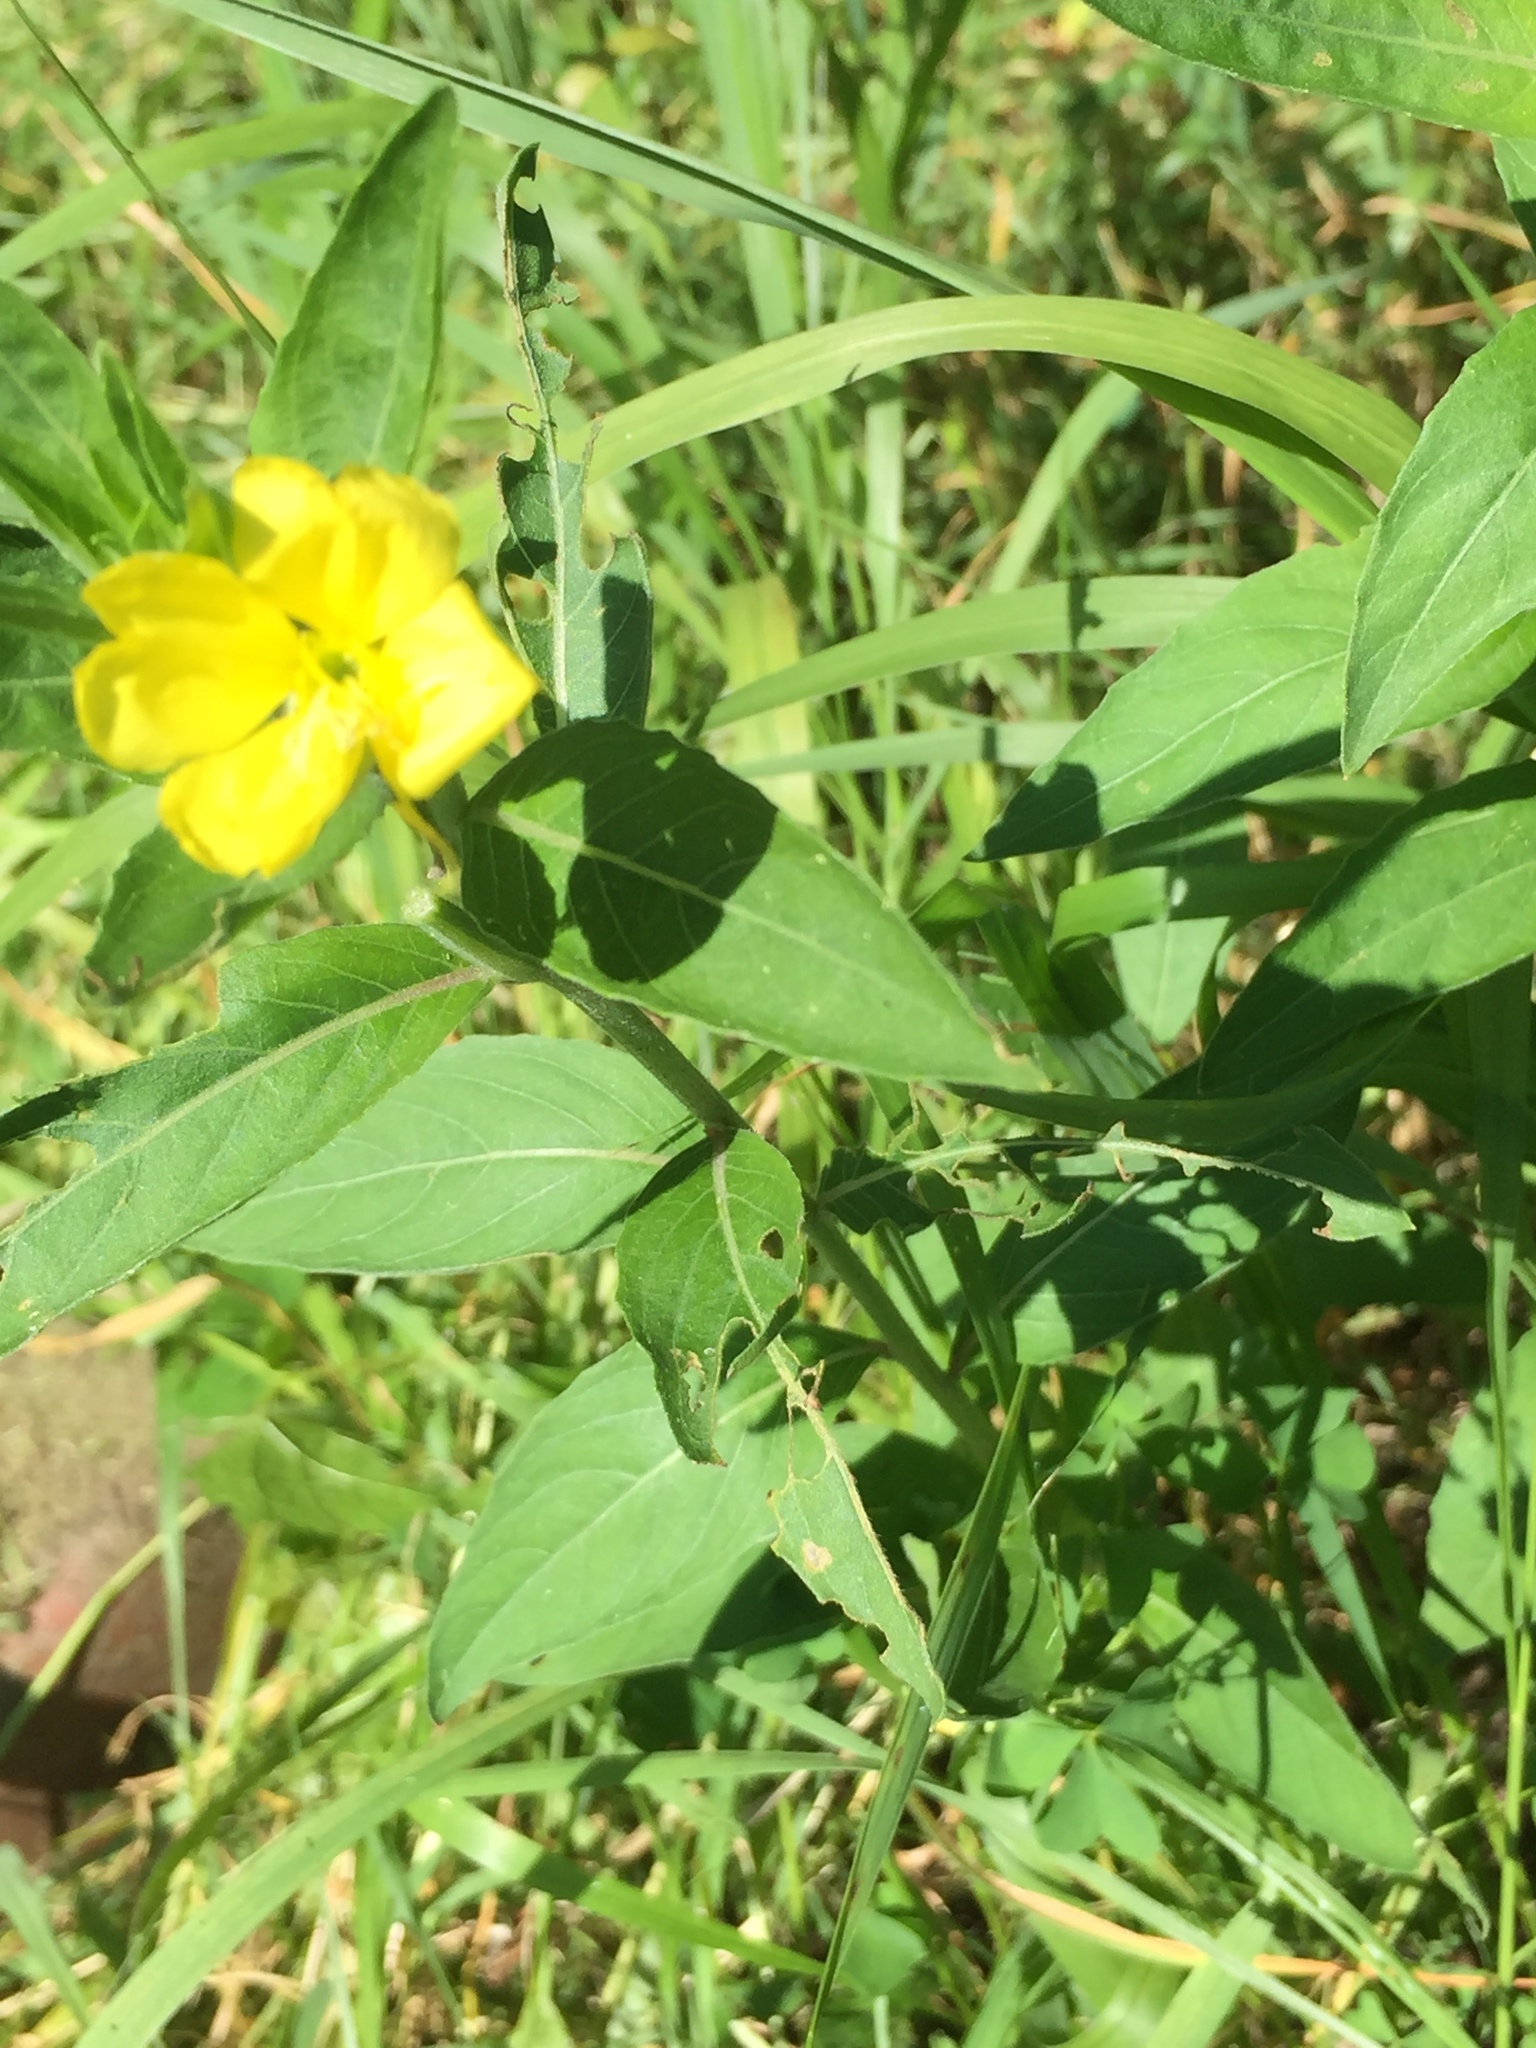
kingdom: Plantae
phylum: Tracheophyta
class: Magnoliopsida
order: Myrtales
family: Onagraceae
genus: Oenothera
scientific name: Oenothera biennis
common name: Common evening-primrose
